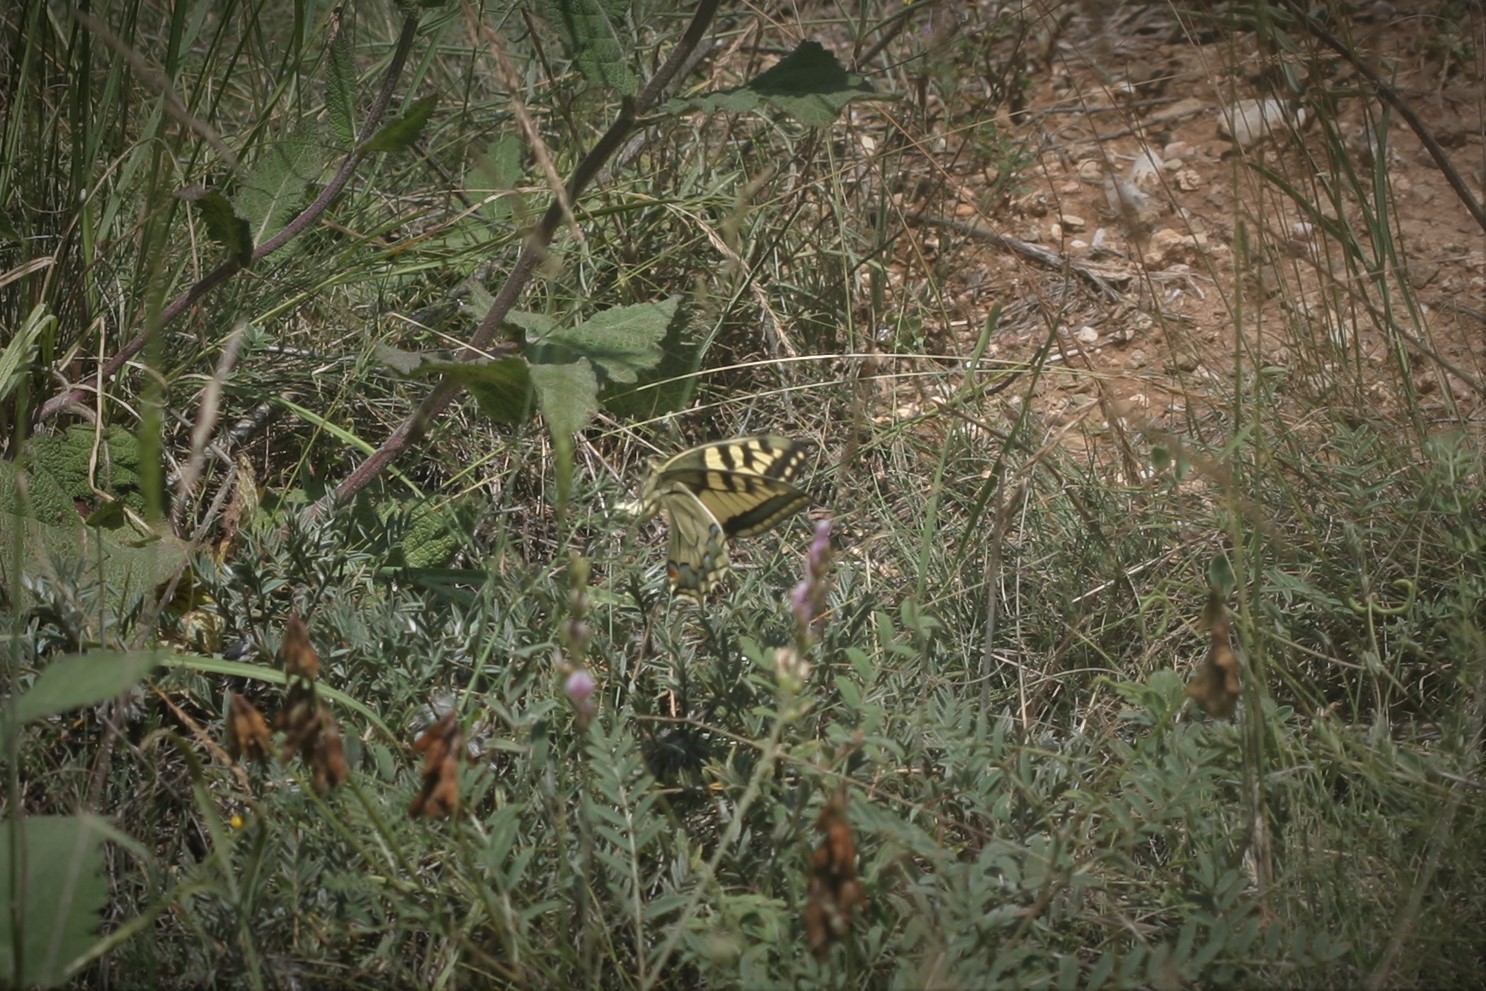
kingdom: Animalia
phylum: Arthropoda
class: Insecta
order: Lepidoptera
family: Papilionidae
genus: Papilio
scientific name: Papilio machaon
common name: Swallowtail
